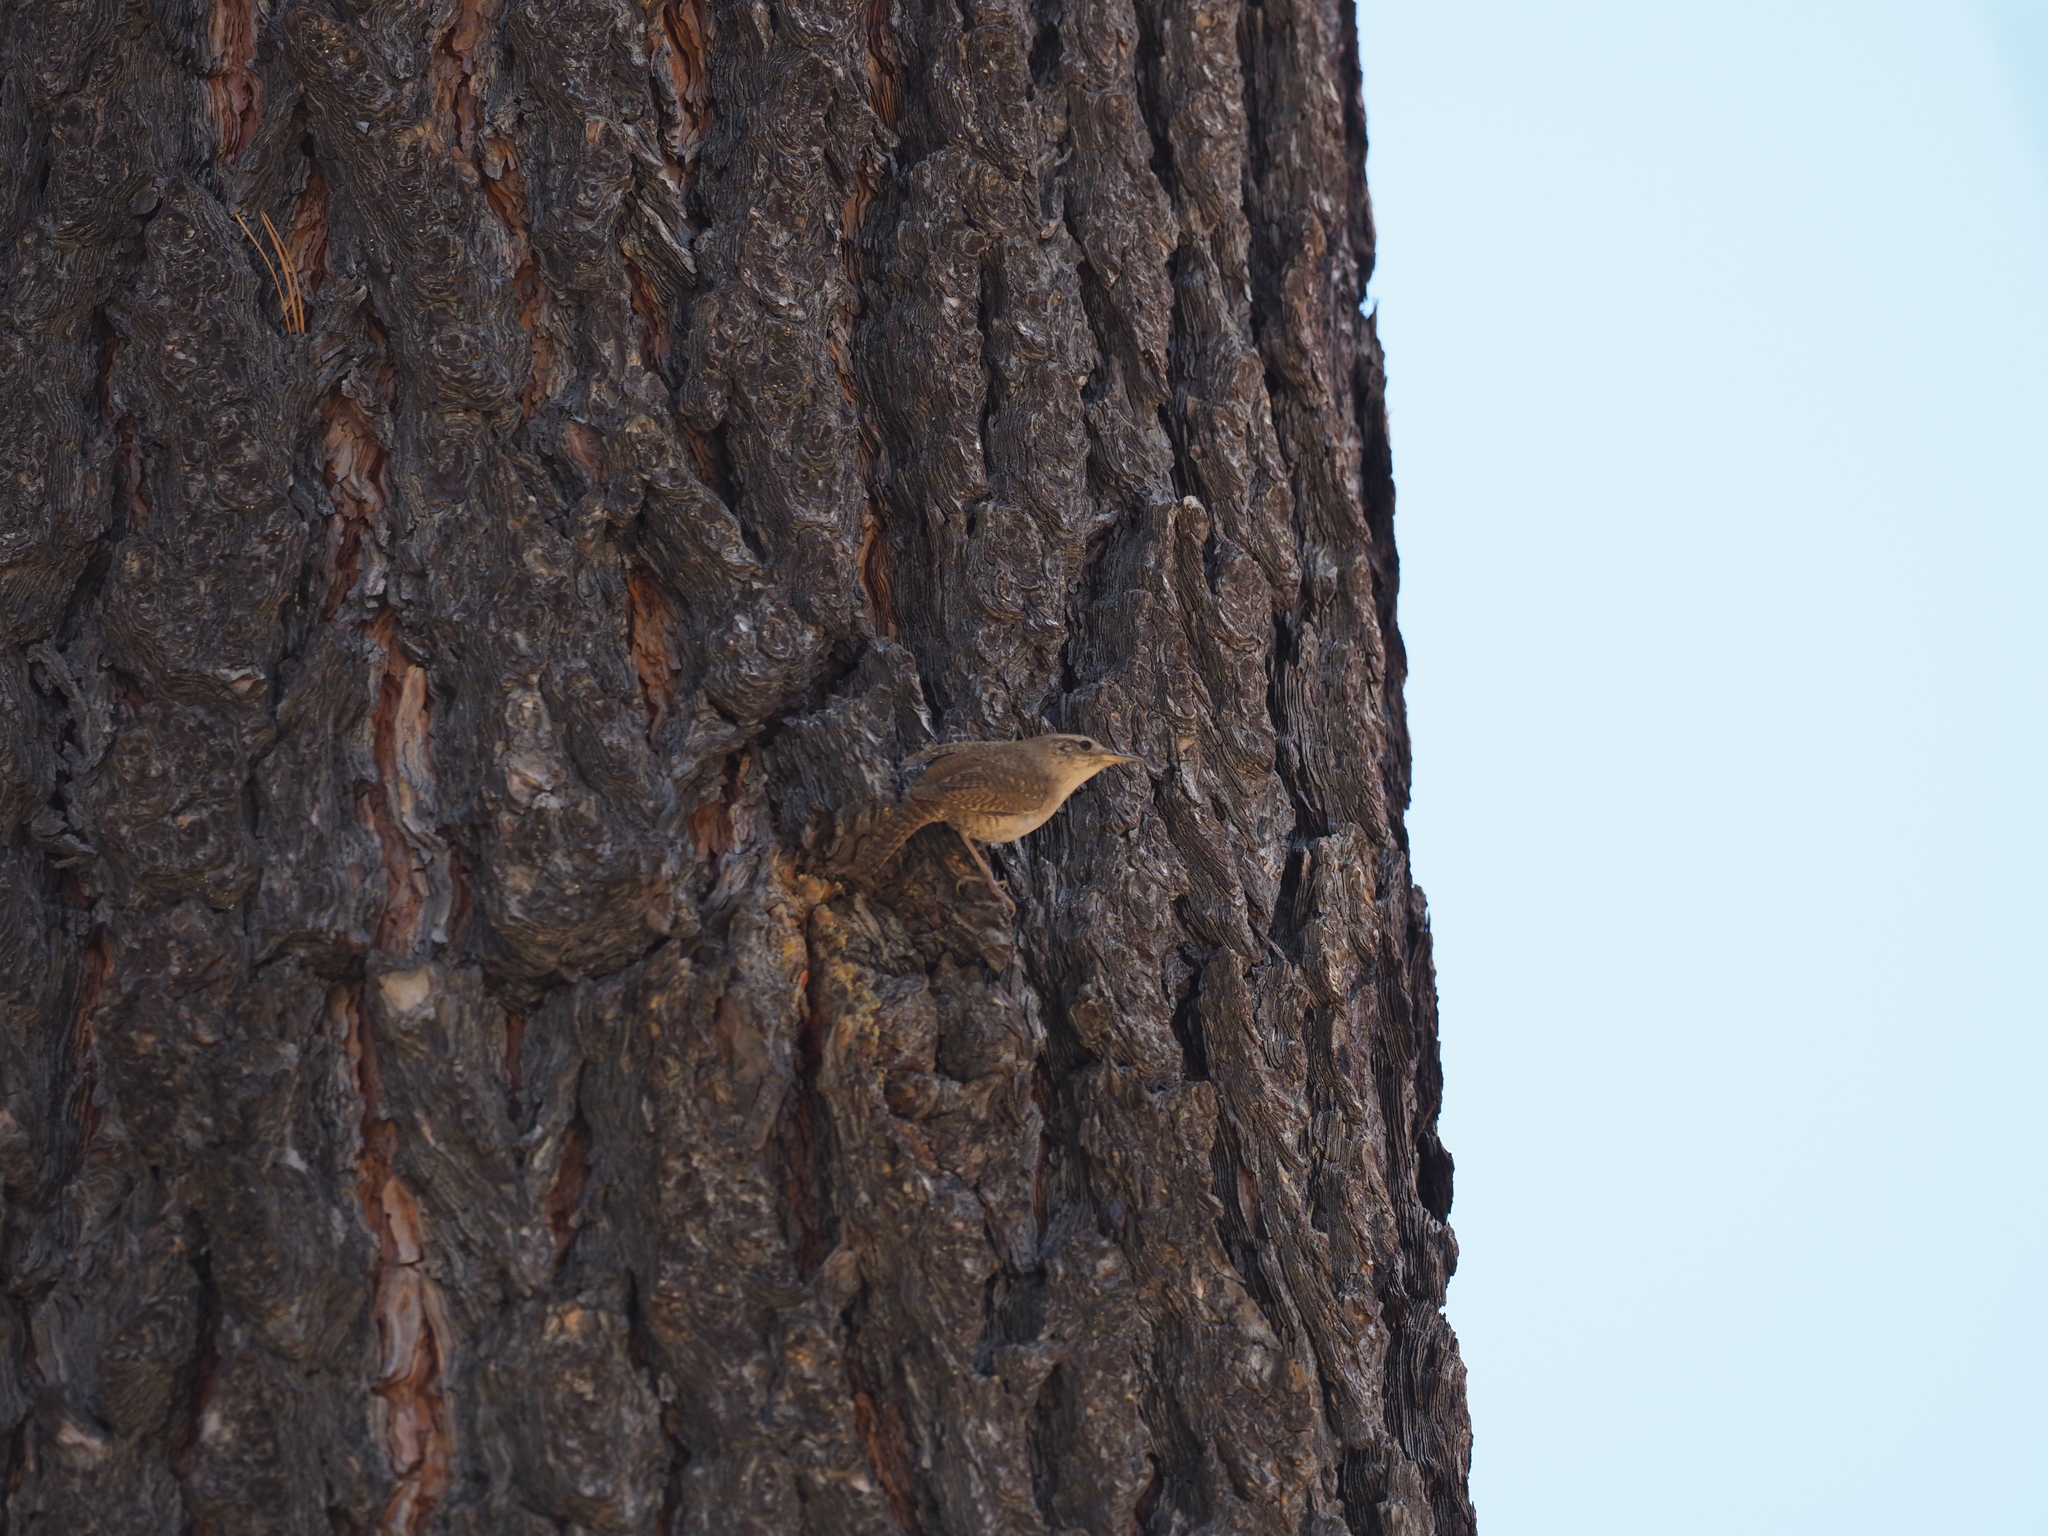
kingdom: Animalia
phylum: Chordata
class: Aves
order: Passeriformes
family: Troglodytidae
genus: Troglodytes
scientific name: Troglodytes aedon
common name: House wren
